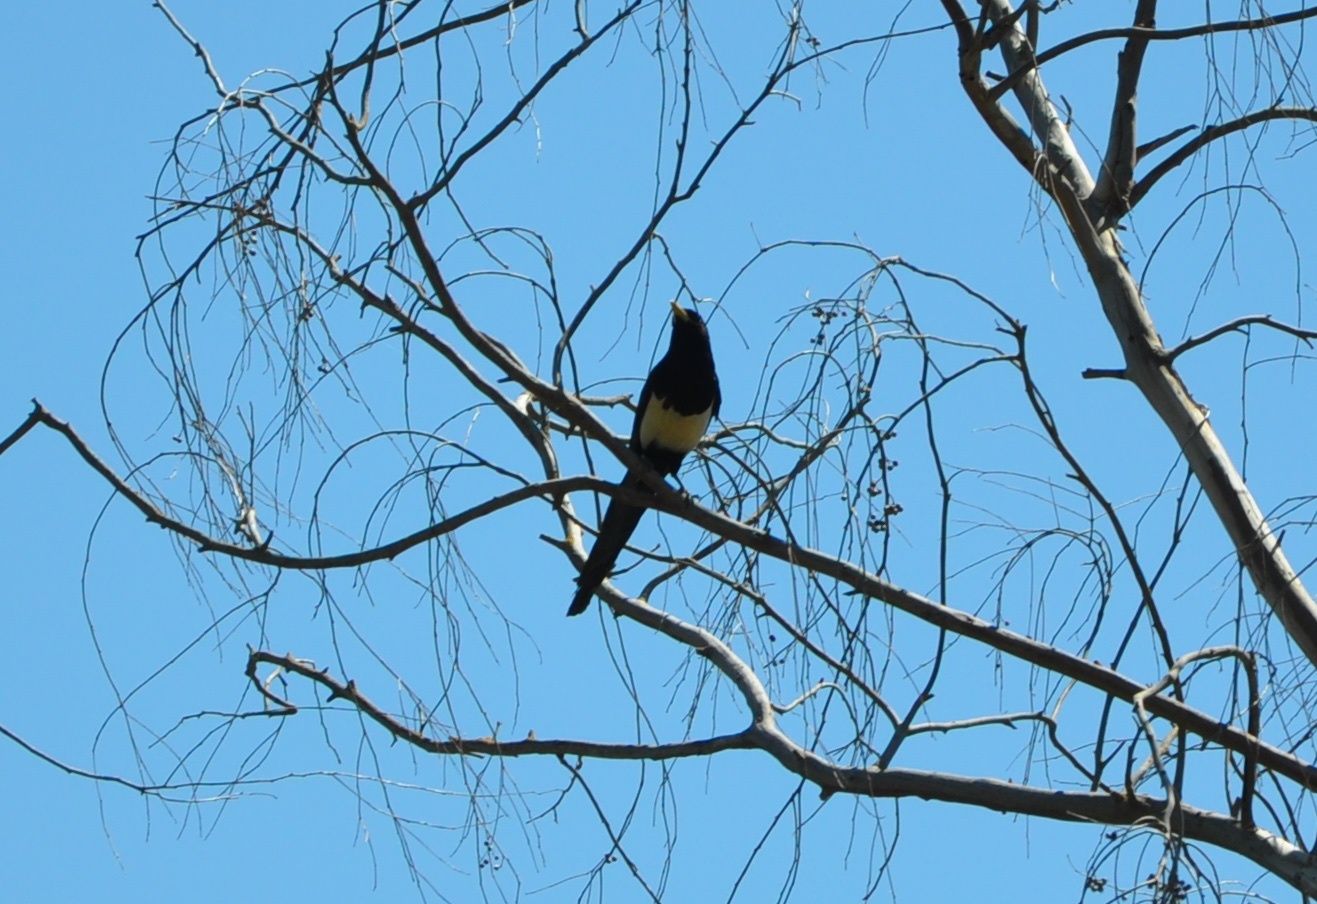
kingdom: Animalia
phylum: Chordata
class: Aves
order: Passeriformes
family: Corvidae
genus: Pica
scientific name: Pica nuttalli
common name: Yellow-billed magpie
